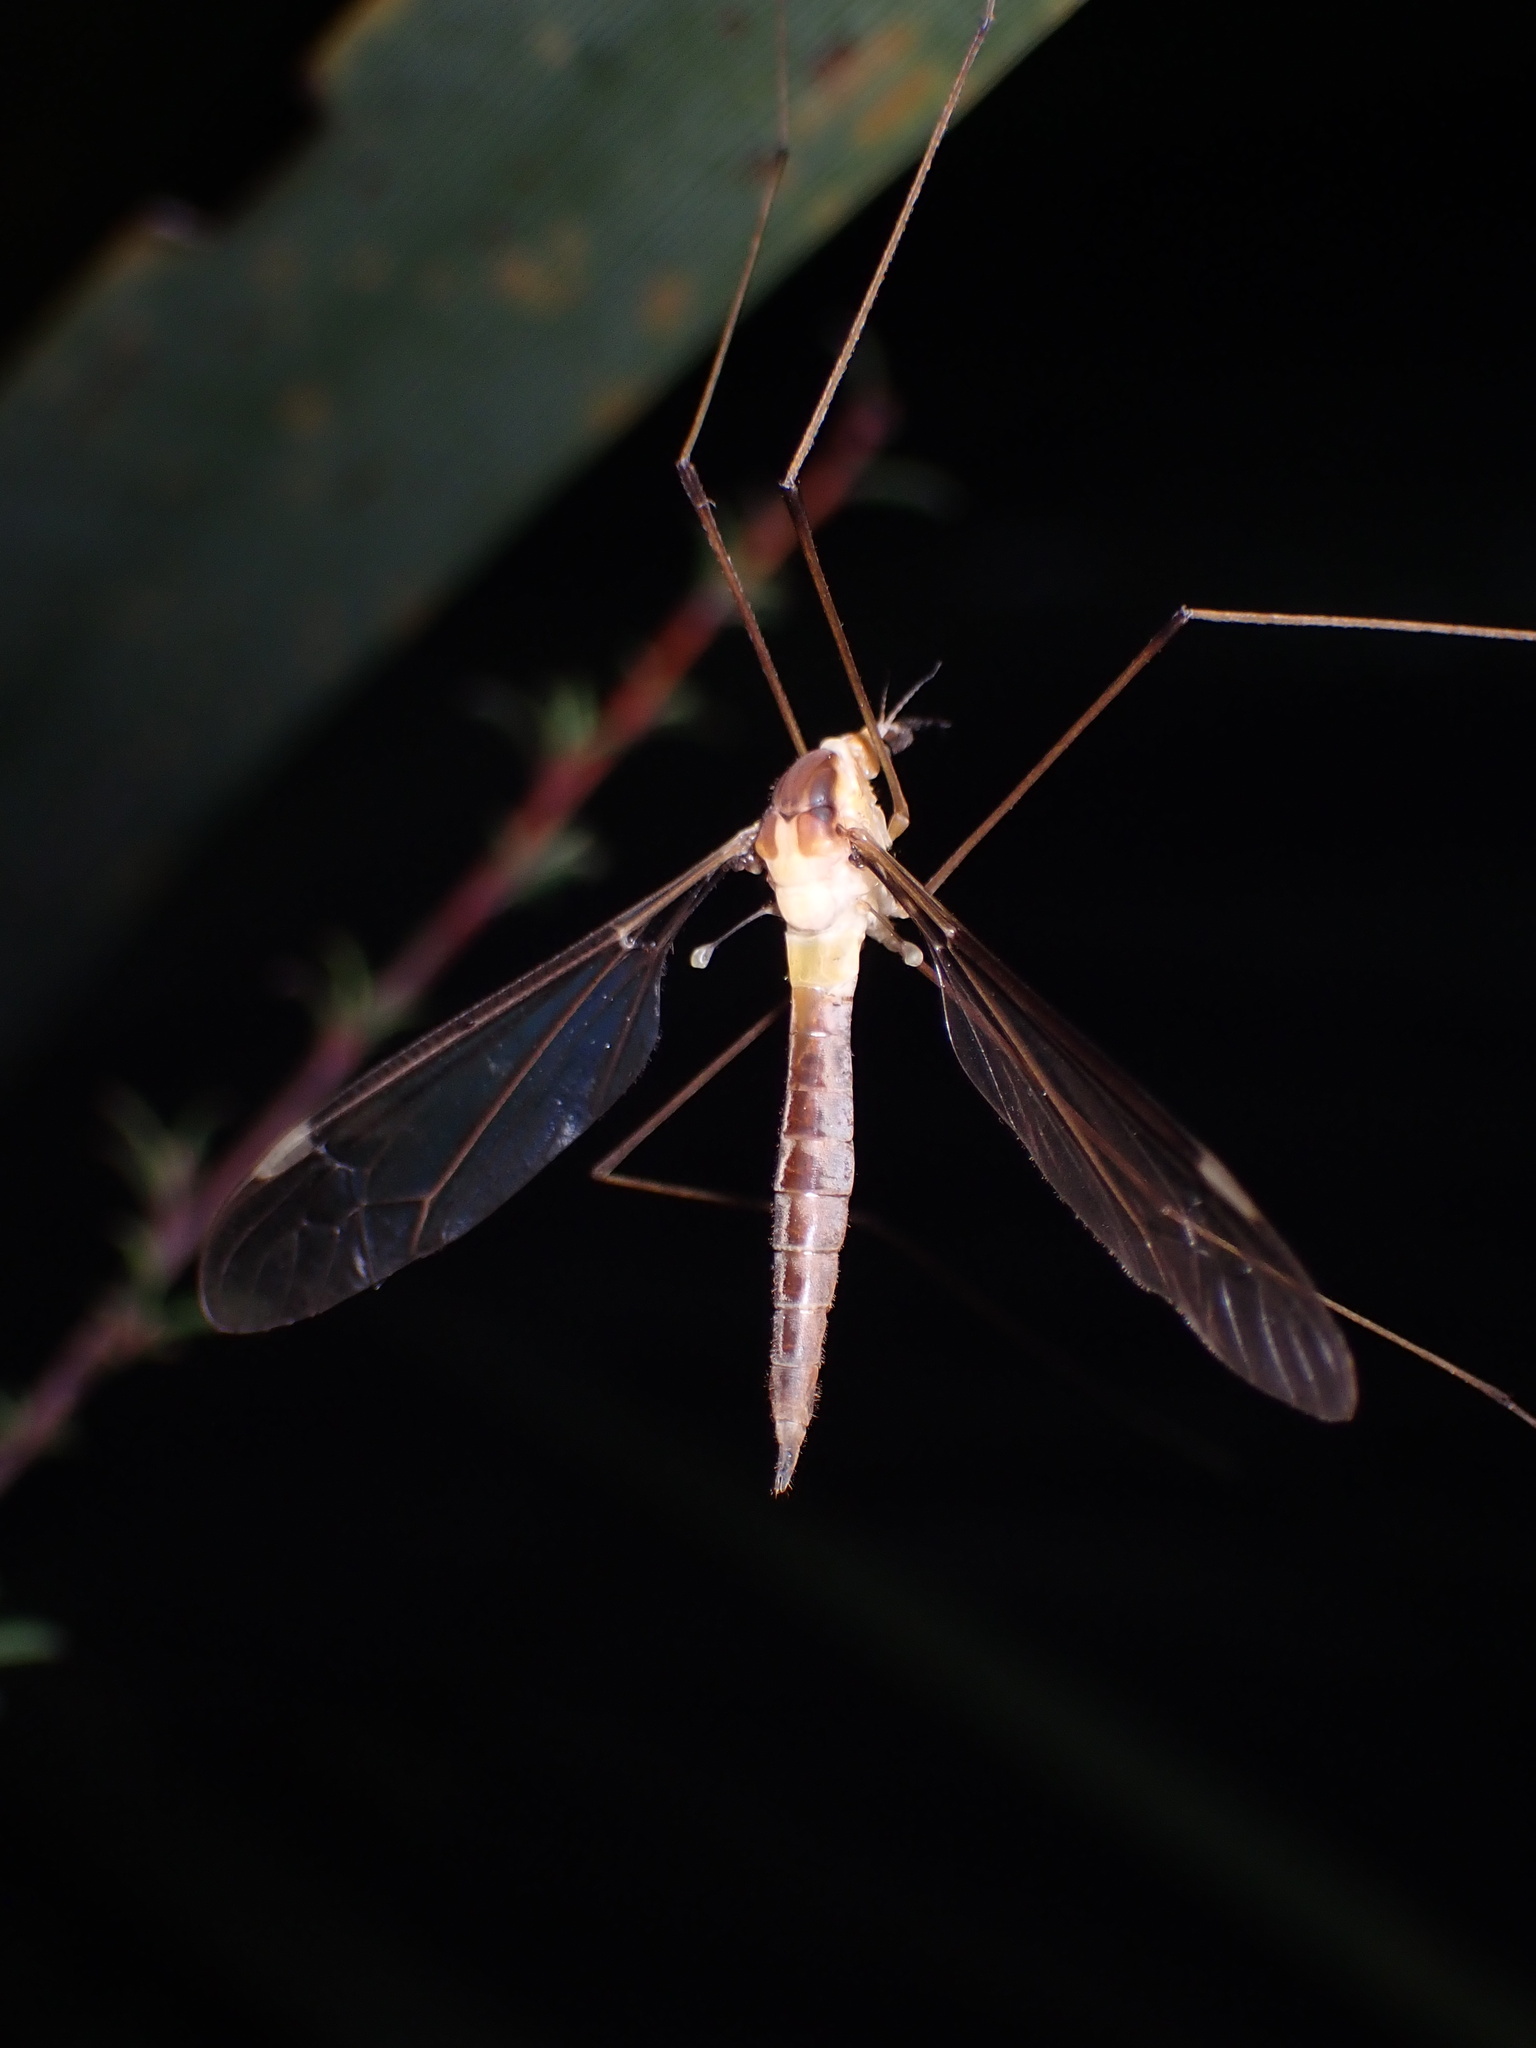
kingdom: Animalia
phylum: Arthropoda
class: Insecta
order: Diptera
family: Tipulidae
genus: Leptotarsus
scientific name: Leptotarsus albistigma
